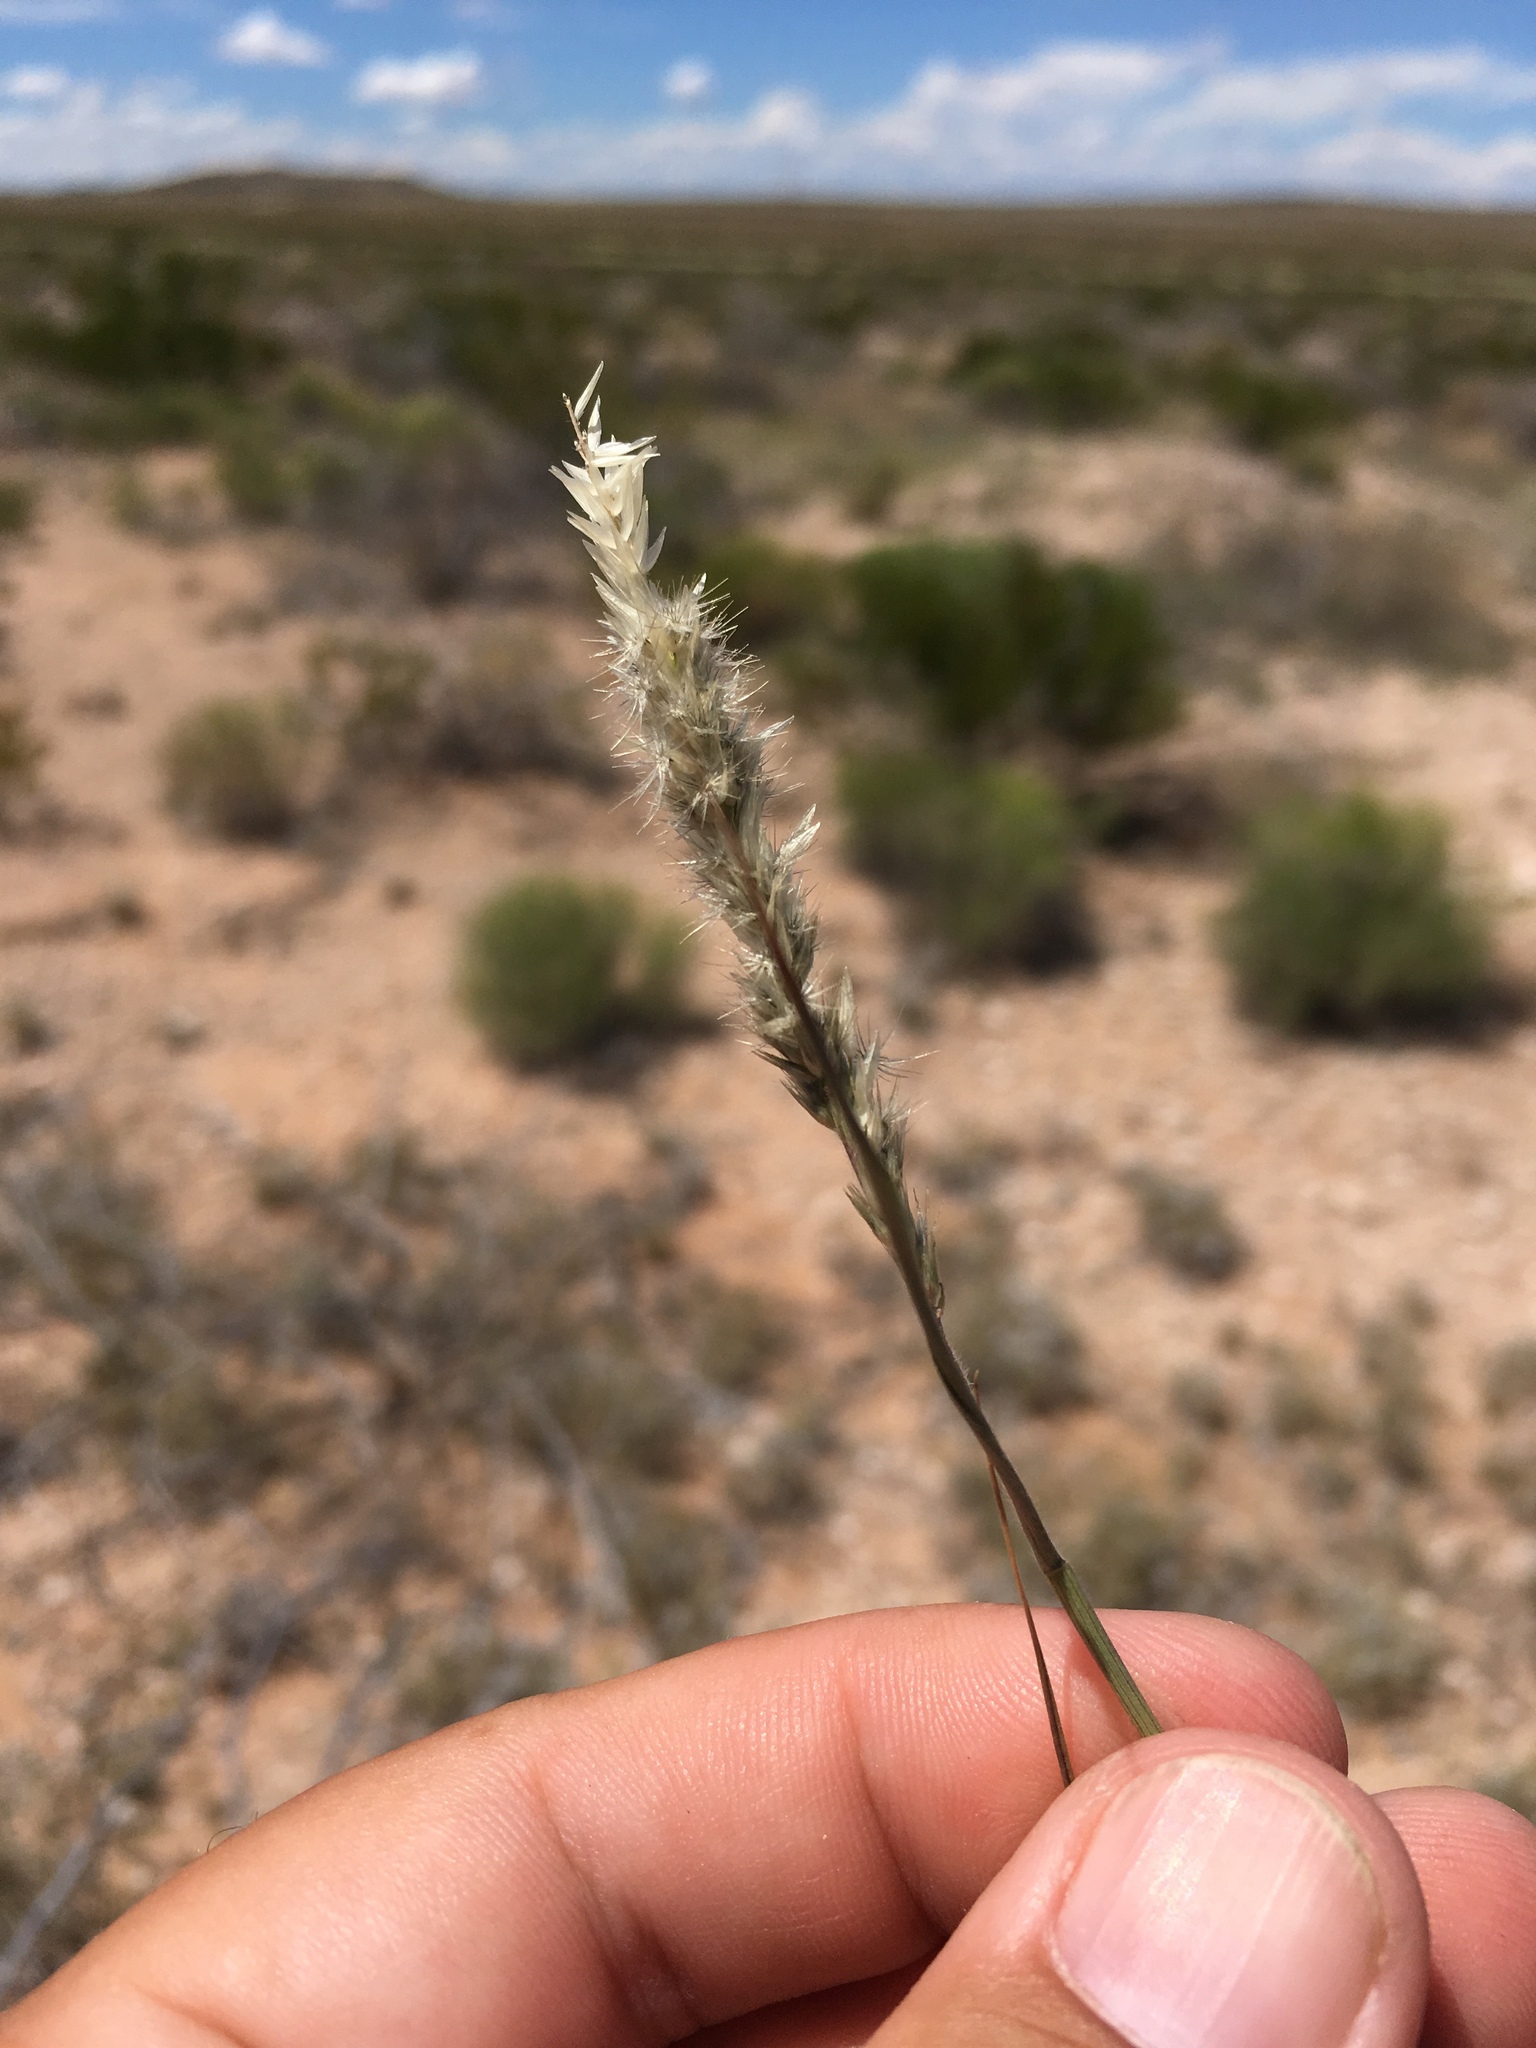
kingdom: Plantae
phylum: Tracheophyta
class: Liliopsida
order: Poales
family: Poaceae
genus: Enneapogon
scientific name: Enneapogon desvauxii
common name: Feather pappus grass
